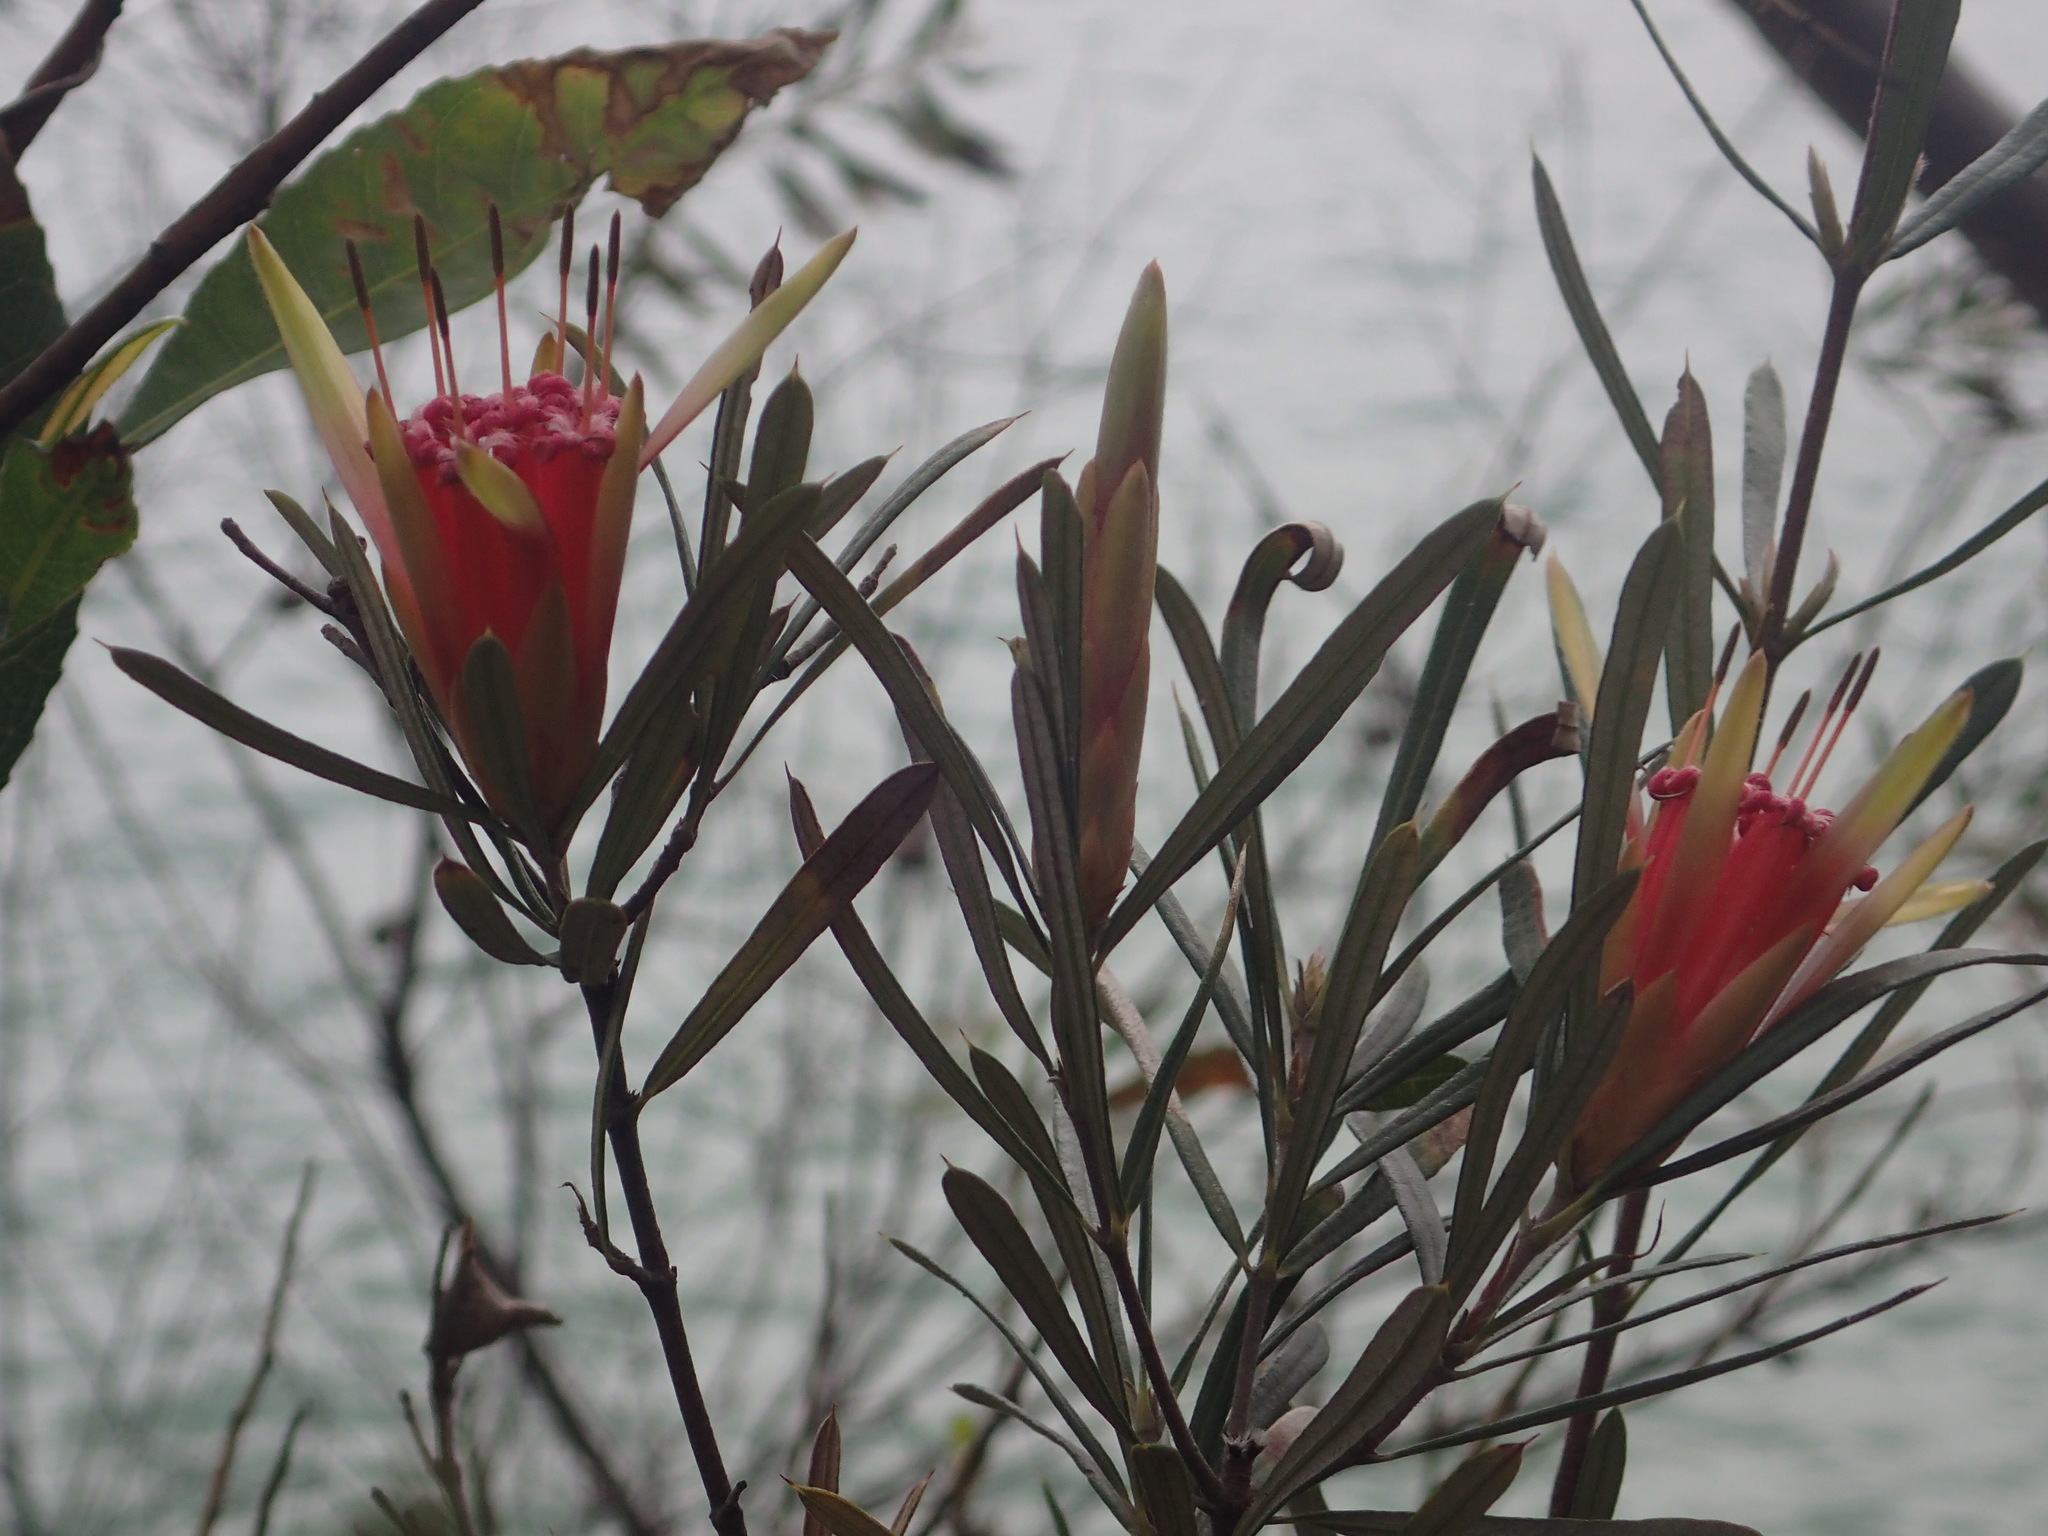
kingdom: Plantae
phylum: Tracheophyta
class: Magnoliopsida
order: Proteales
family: Proteaceae
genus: Lambertia
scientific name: Lambertia formosa
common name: Mountain-devil
